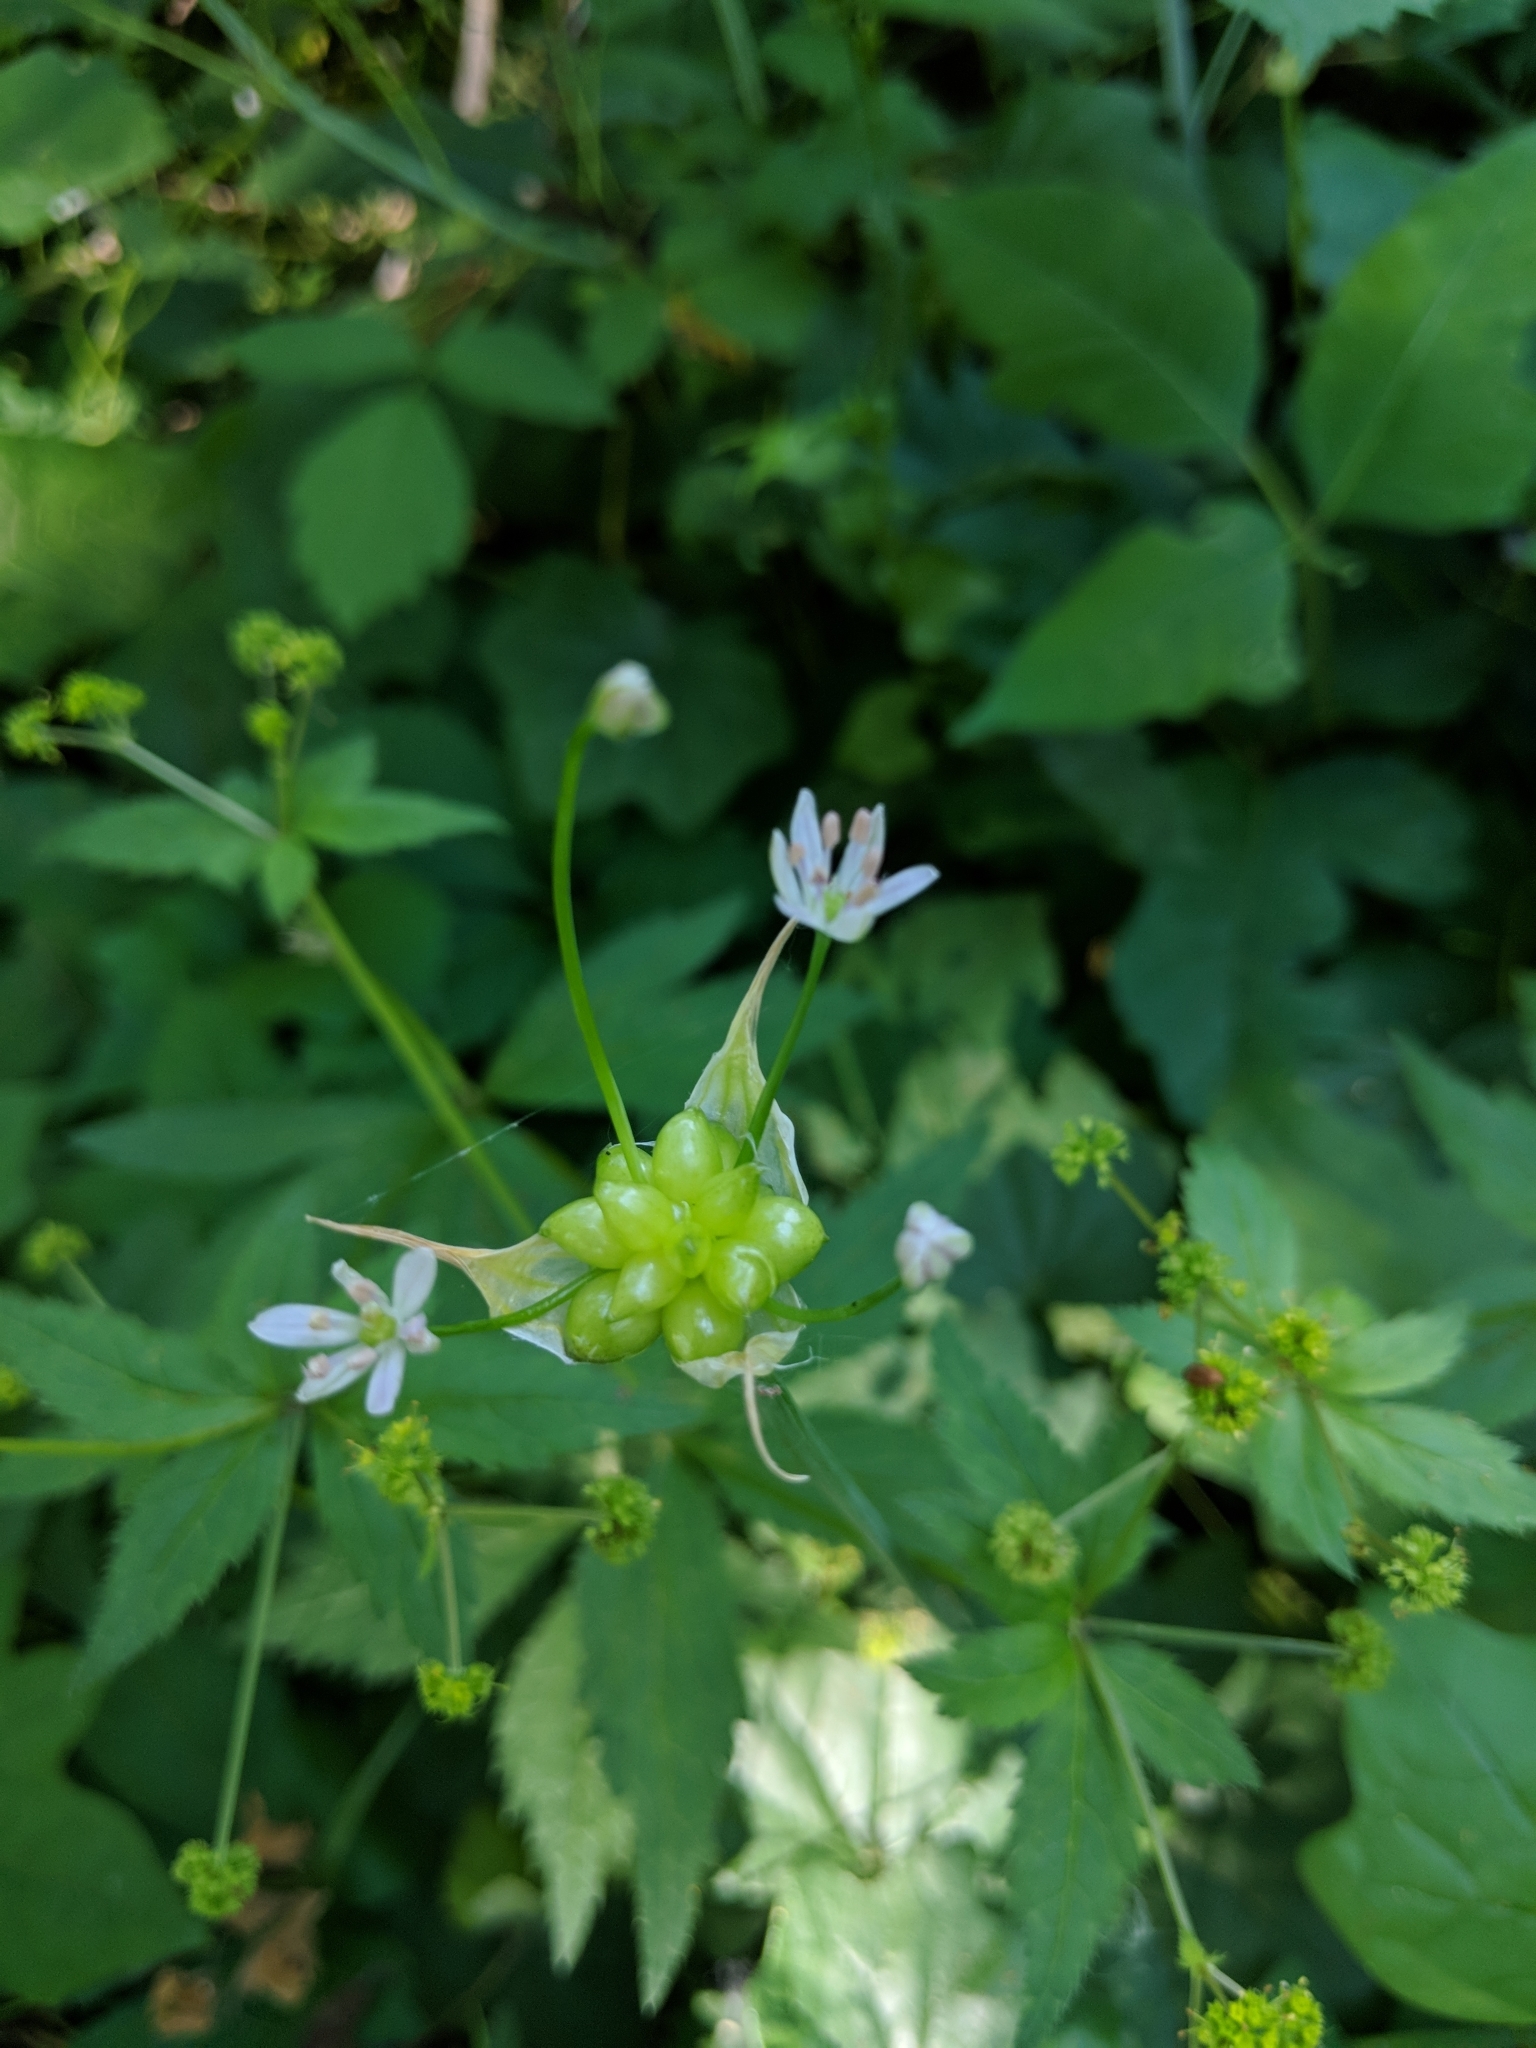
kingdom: Plantae
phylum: Tracheophyta
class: Liliopsida
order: Asparagales
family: Amaryllidaceae
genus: Allium
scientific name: Allium canadense
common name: Meadow garlic
